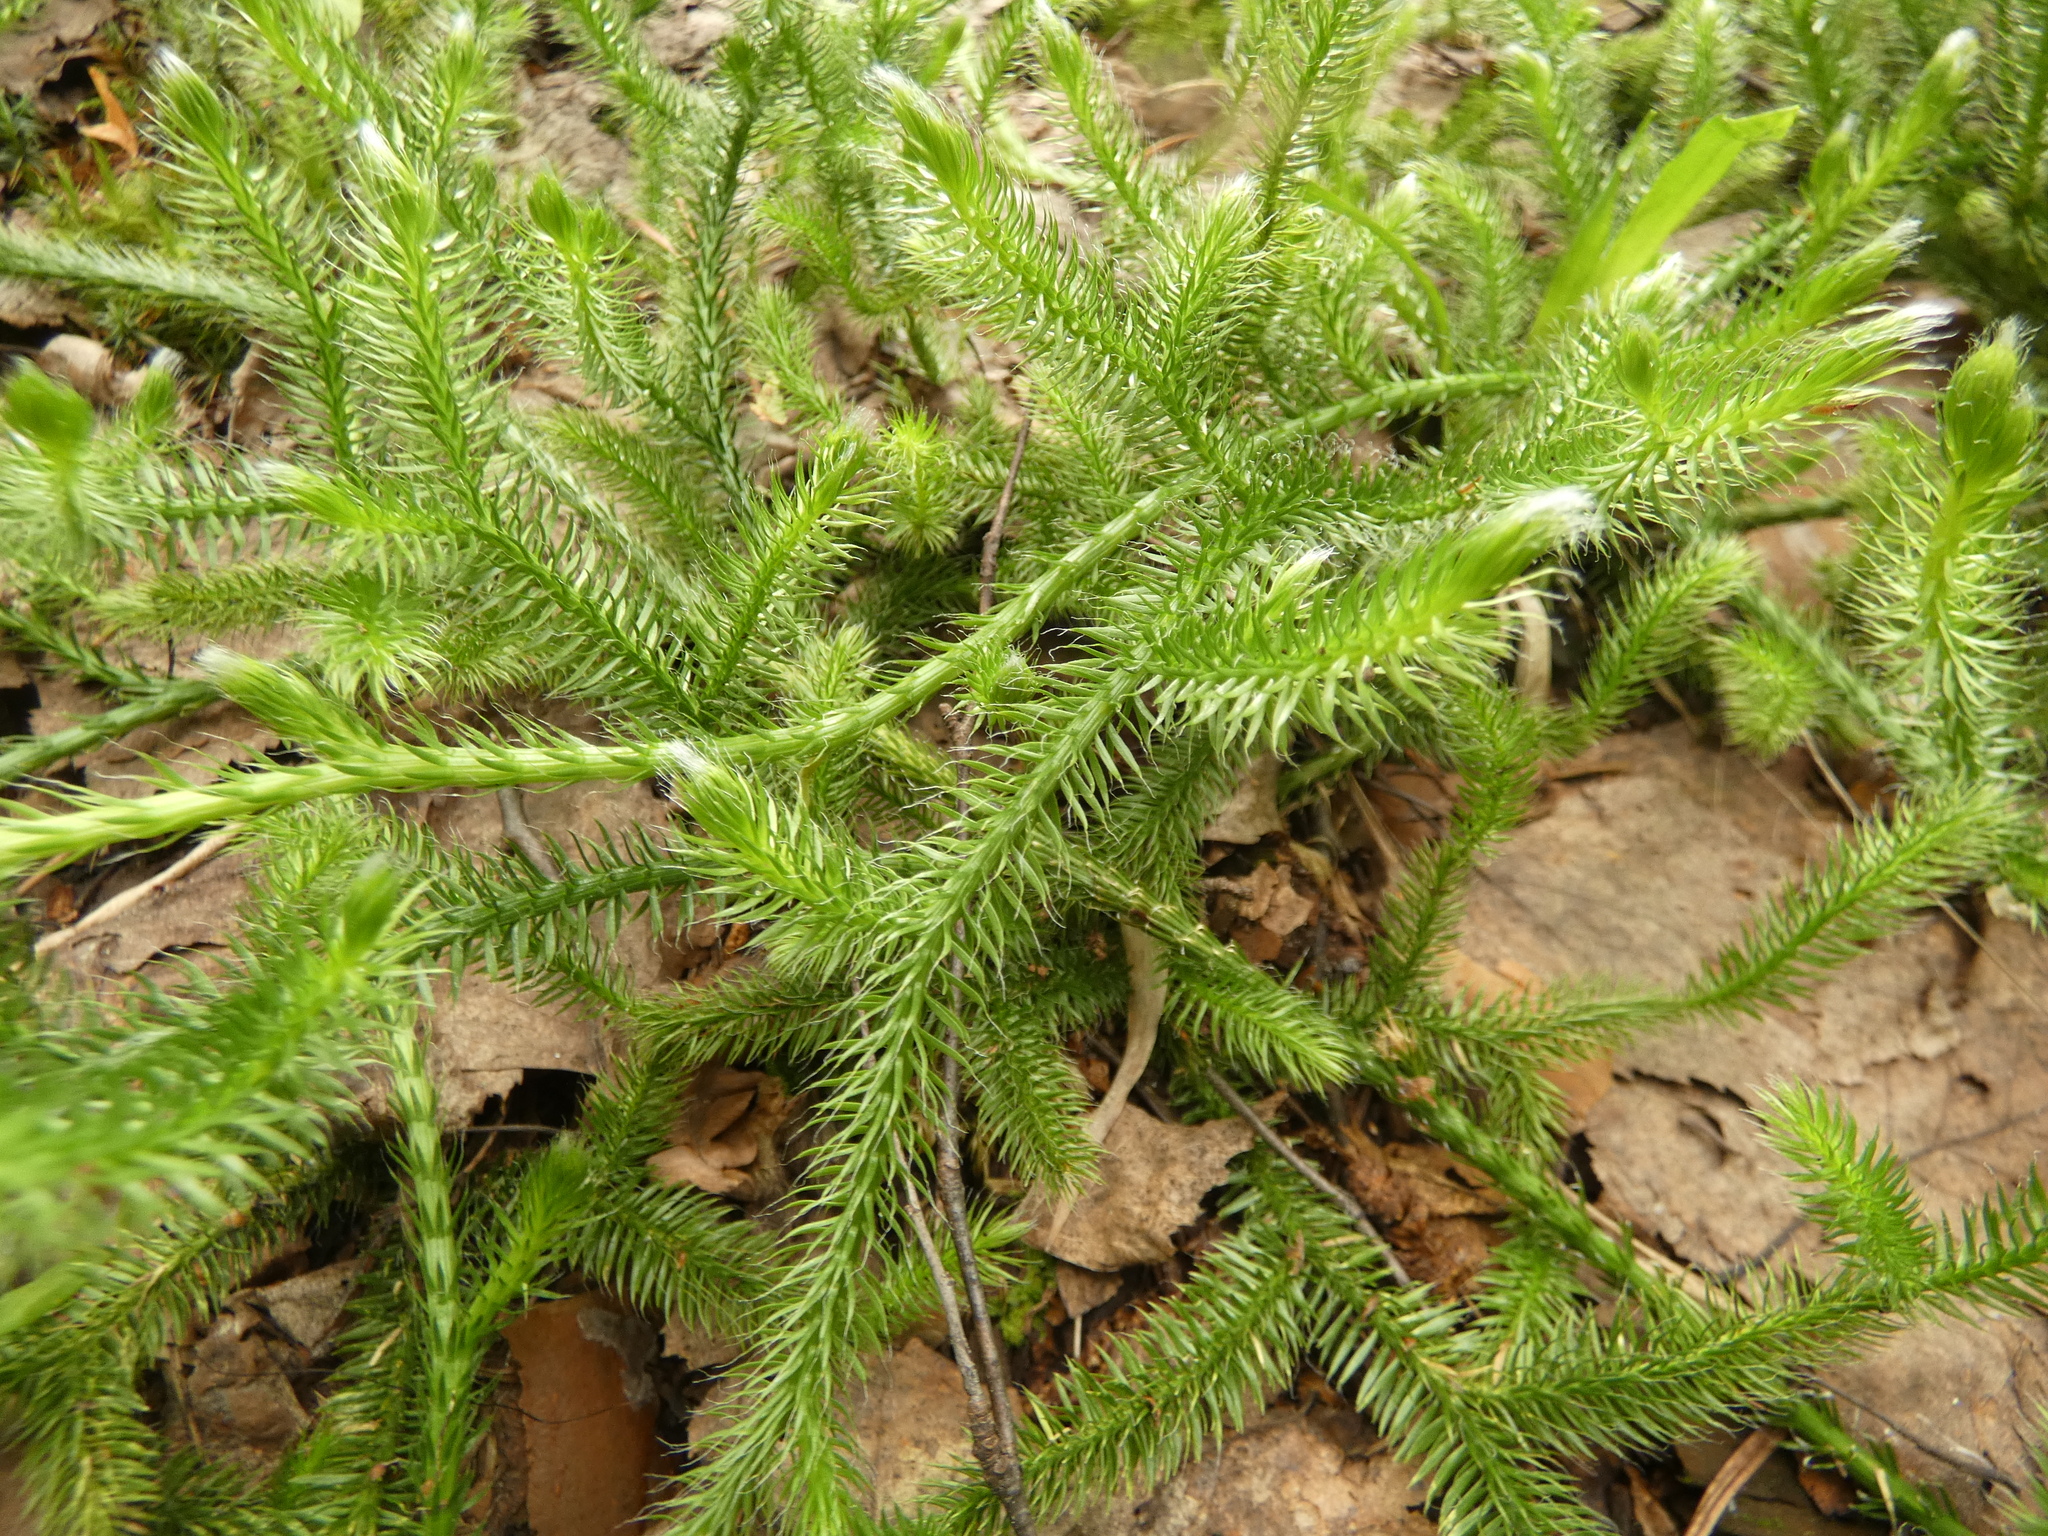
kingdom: Plantae
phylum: Tracheophyta
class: Lycopodiopsida
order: Lycopodiales
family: Lycopodiaceae
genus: Lycopodium
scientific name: Lycopodium clavatum
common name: Stag's-horn clubmoss
